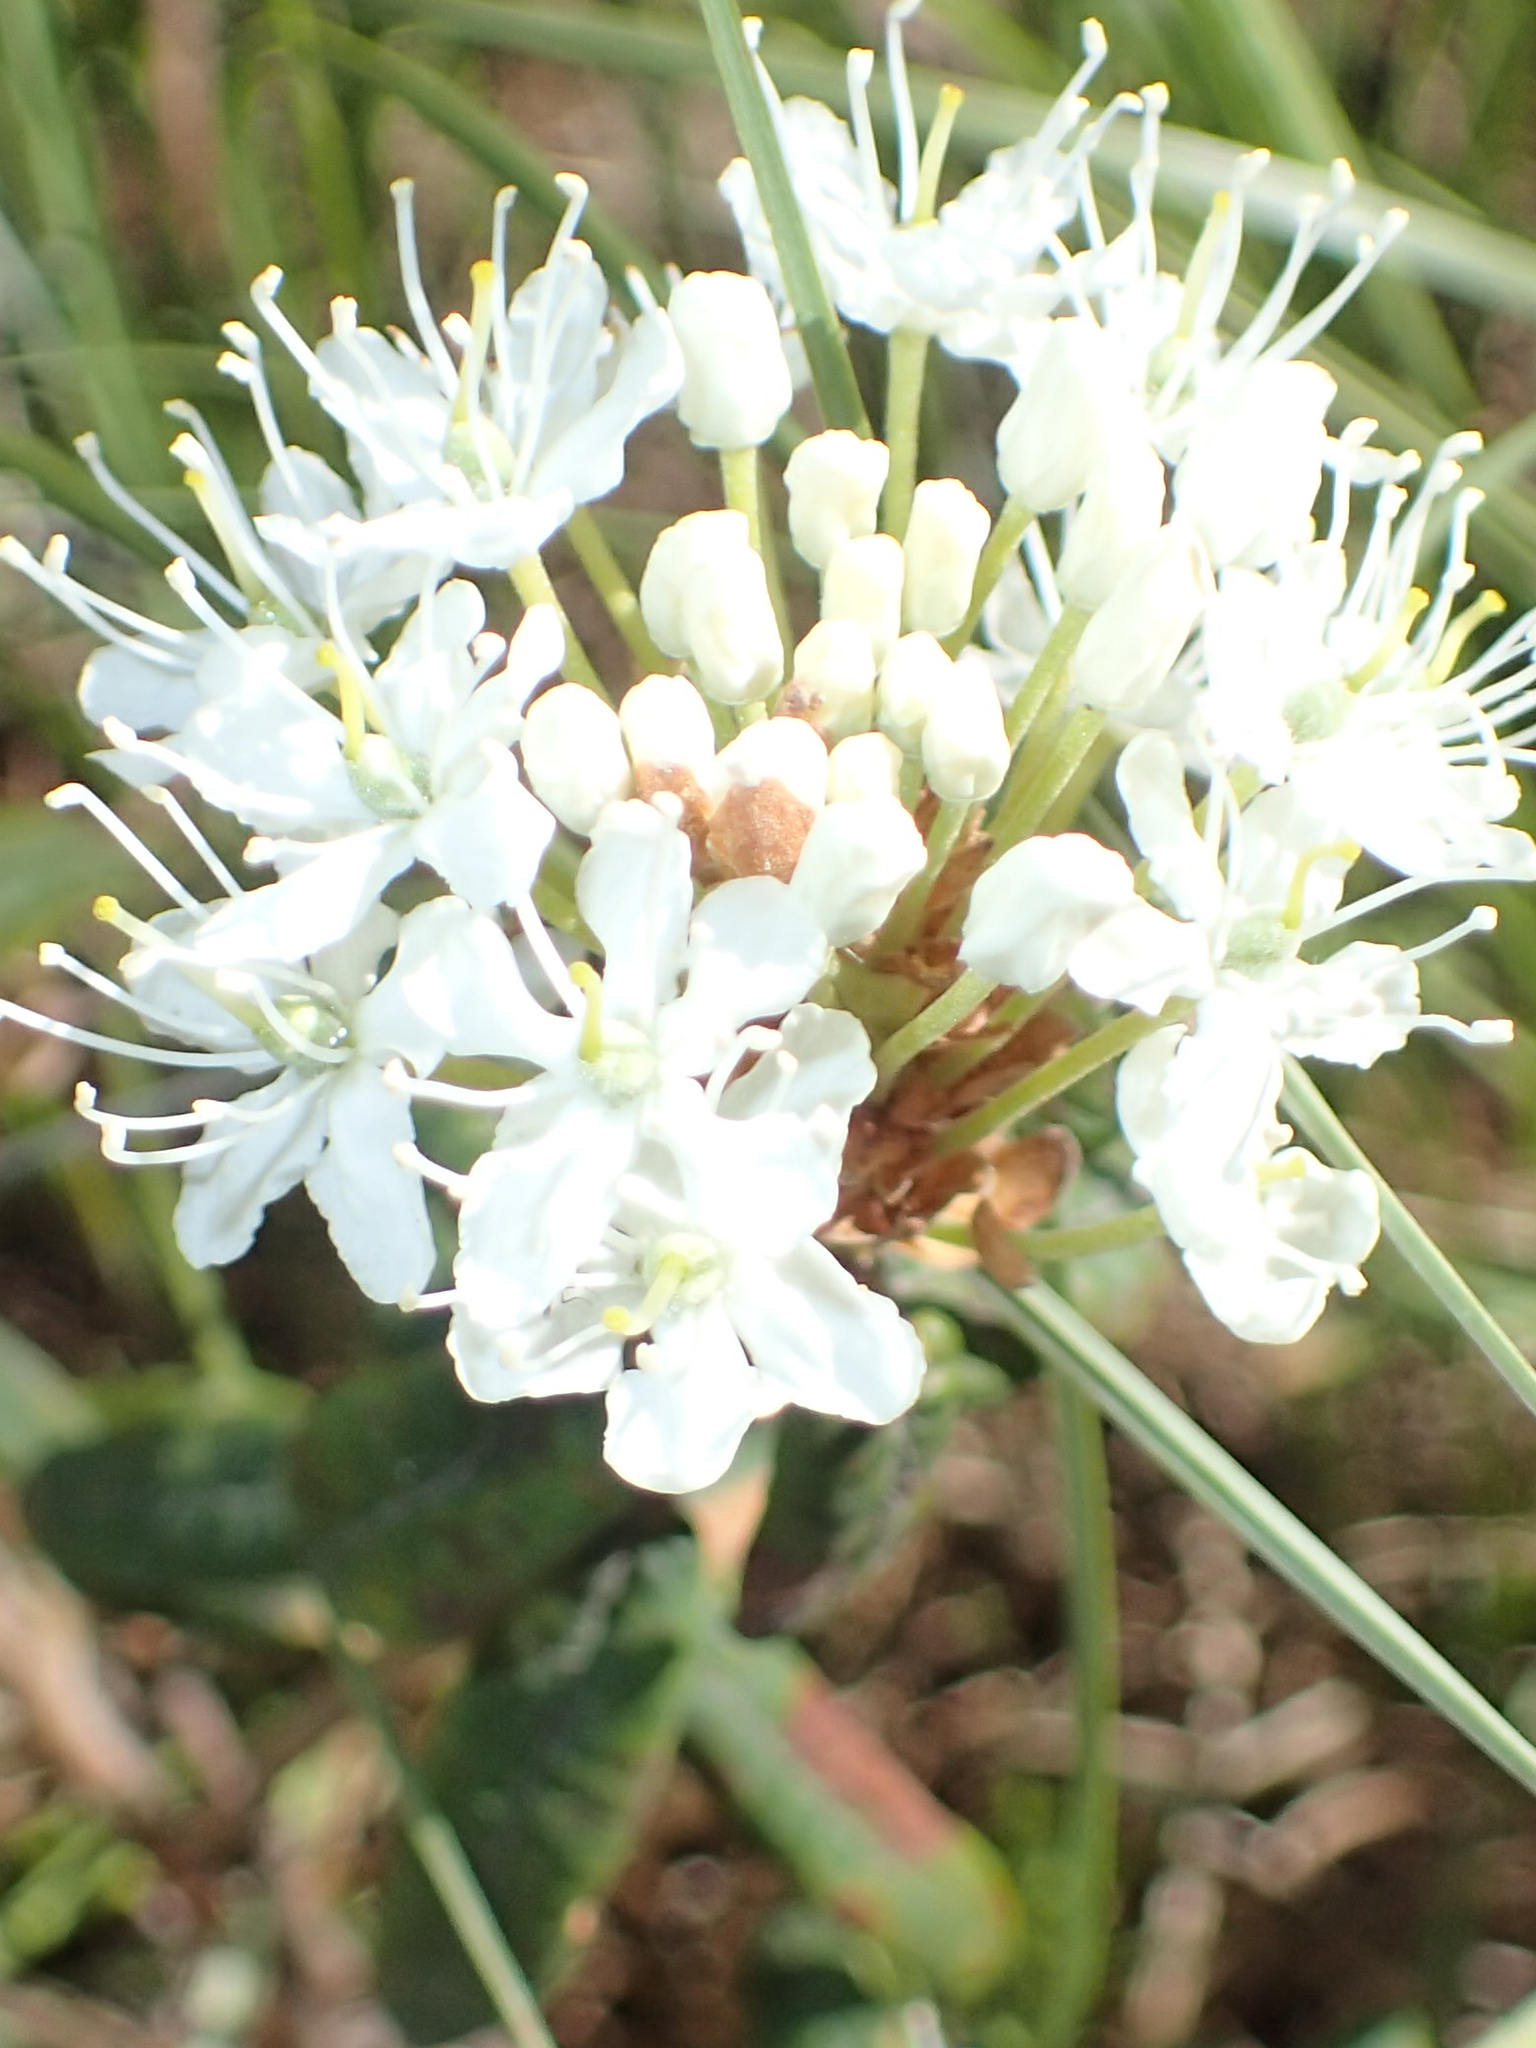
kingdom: Plantae
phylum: Tracheophyta
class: Magnoliopsida
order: Ericales
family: Ericaceae
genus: Rhododendron
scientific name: Rhododendron groenlandicum
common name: Bog labrador tea
